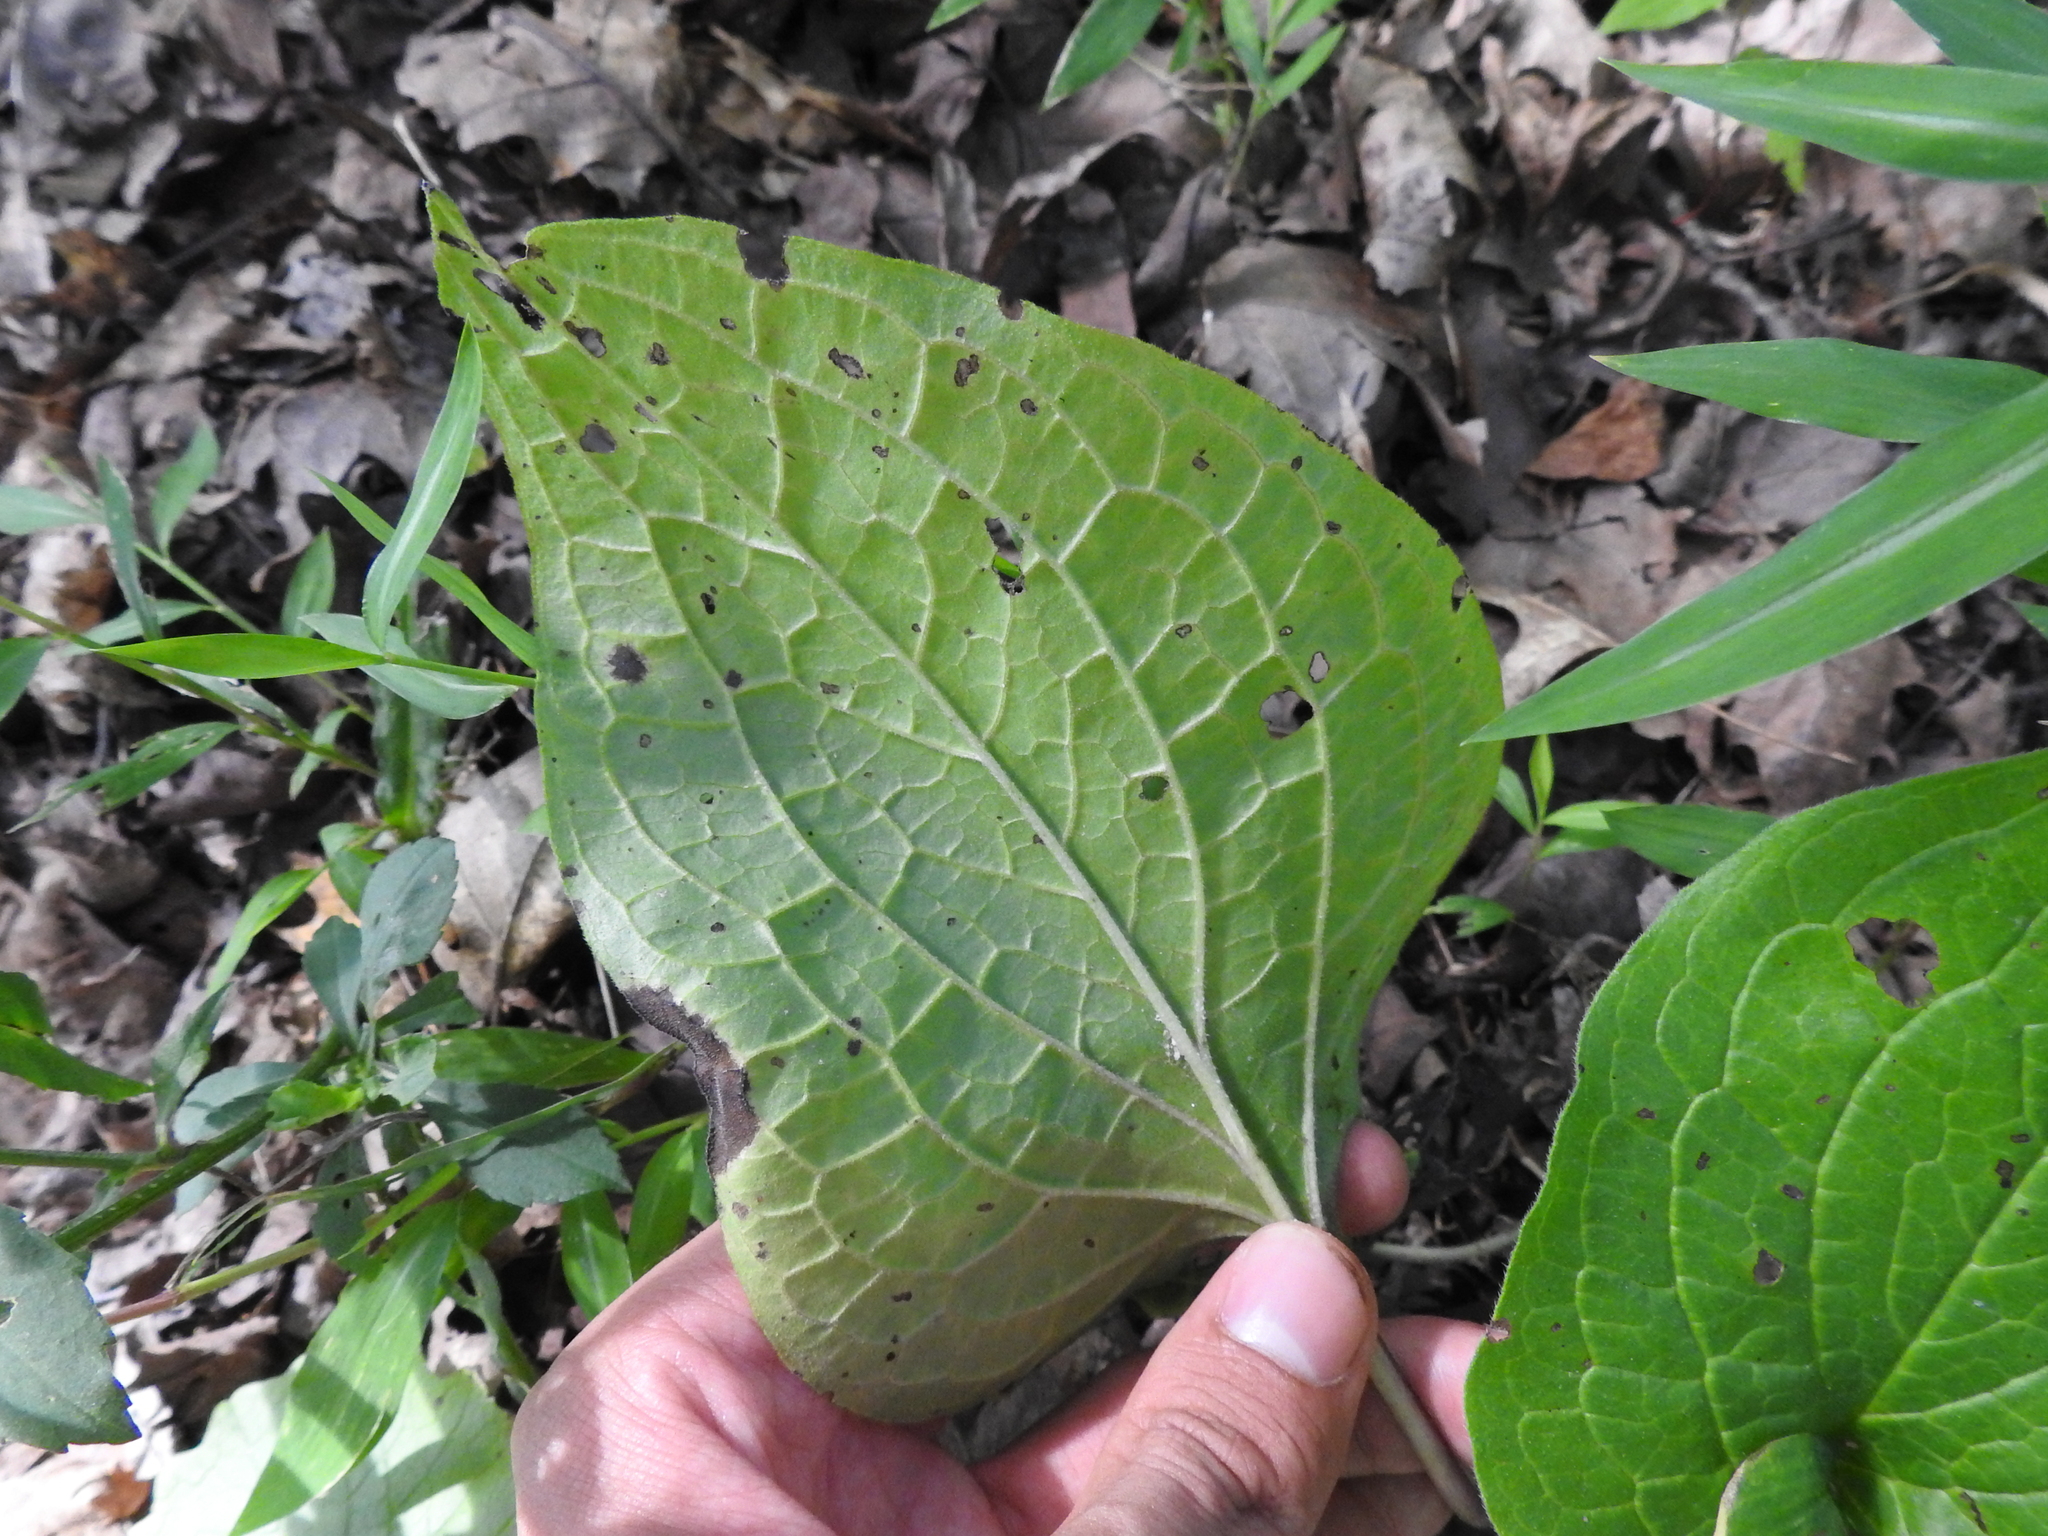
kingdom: Plantae
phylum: Tracheophyta
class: Magnoliopsida
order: Boraginales
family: Boraginaceae
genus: Hackelia
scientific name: Hackelia virginiana
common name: Beggar's-lice
